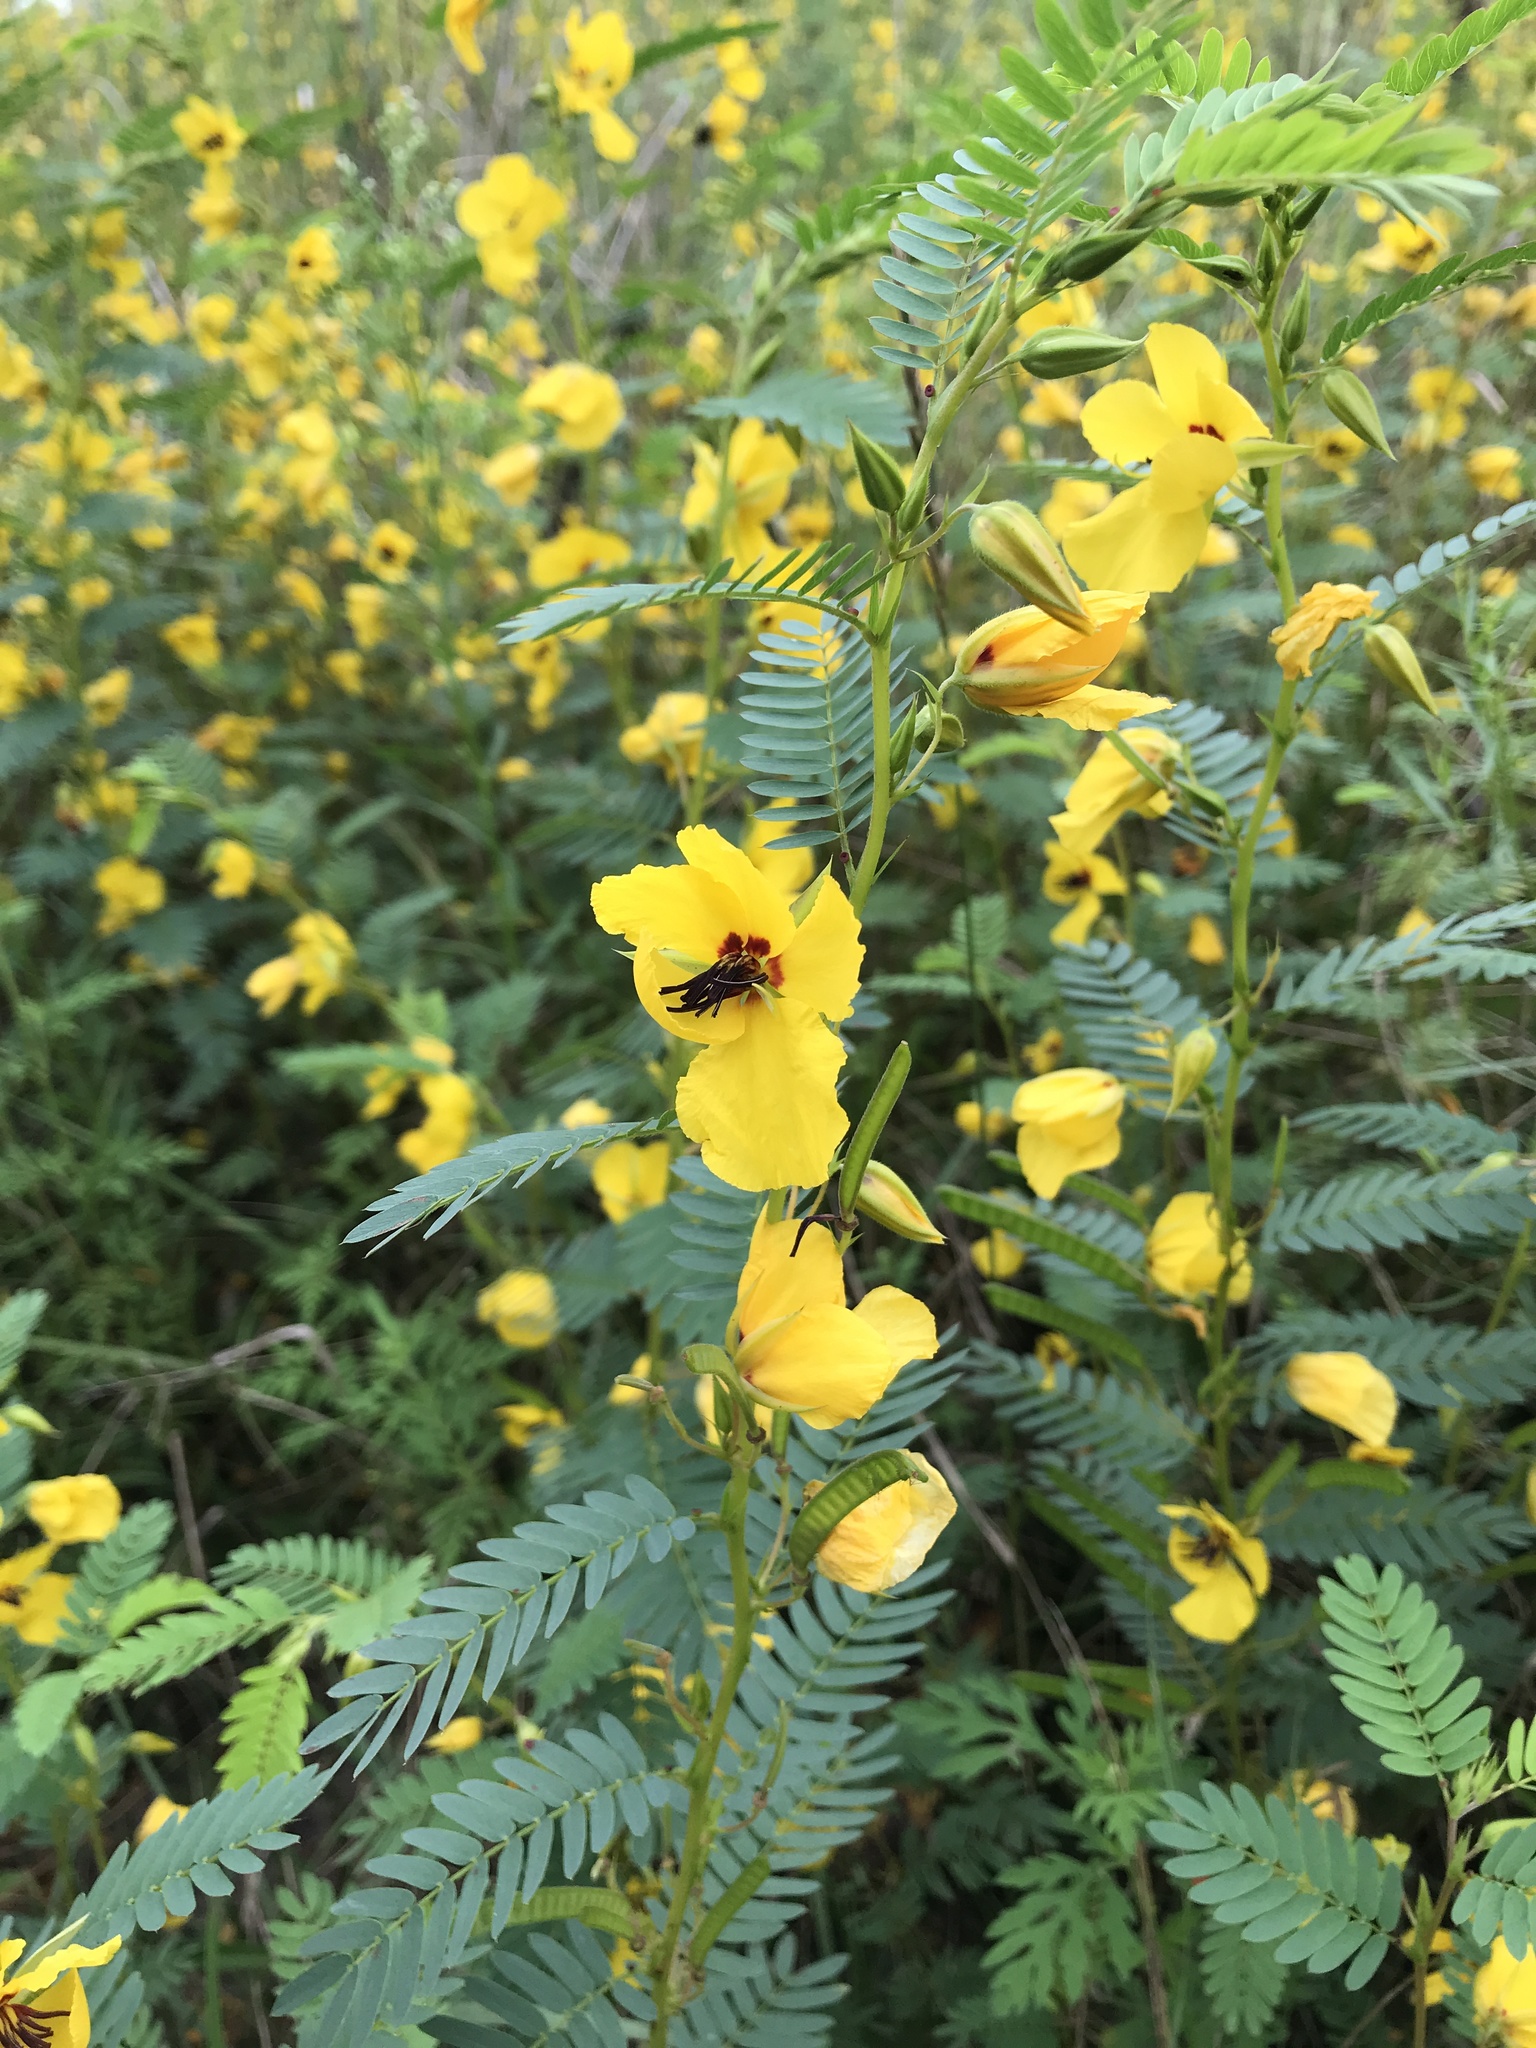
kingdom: Plantae
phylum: Tracheophyta
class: Magnoliopsida
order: Fabales
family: Fabaceae
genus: Chamaecrista
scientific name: Chamaecrista fasciculata
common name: Golden cassia
